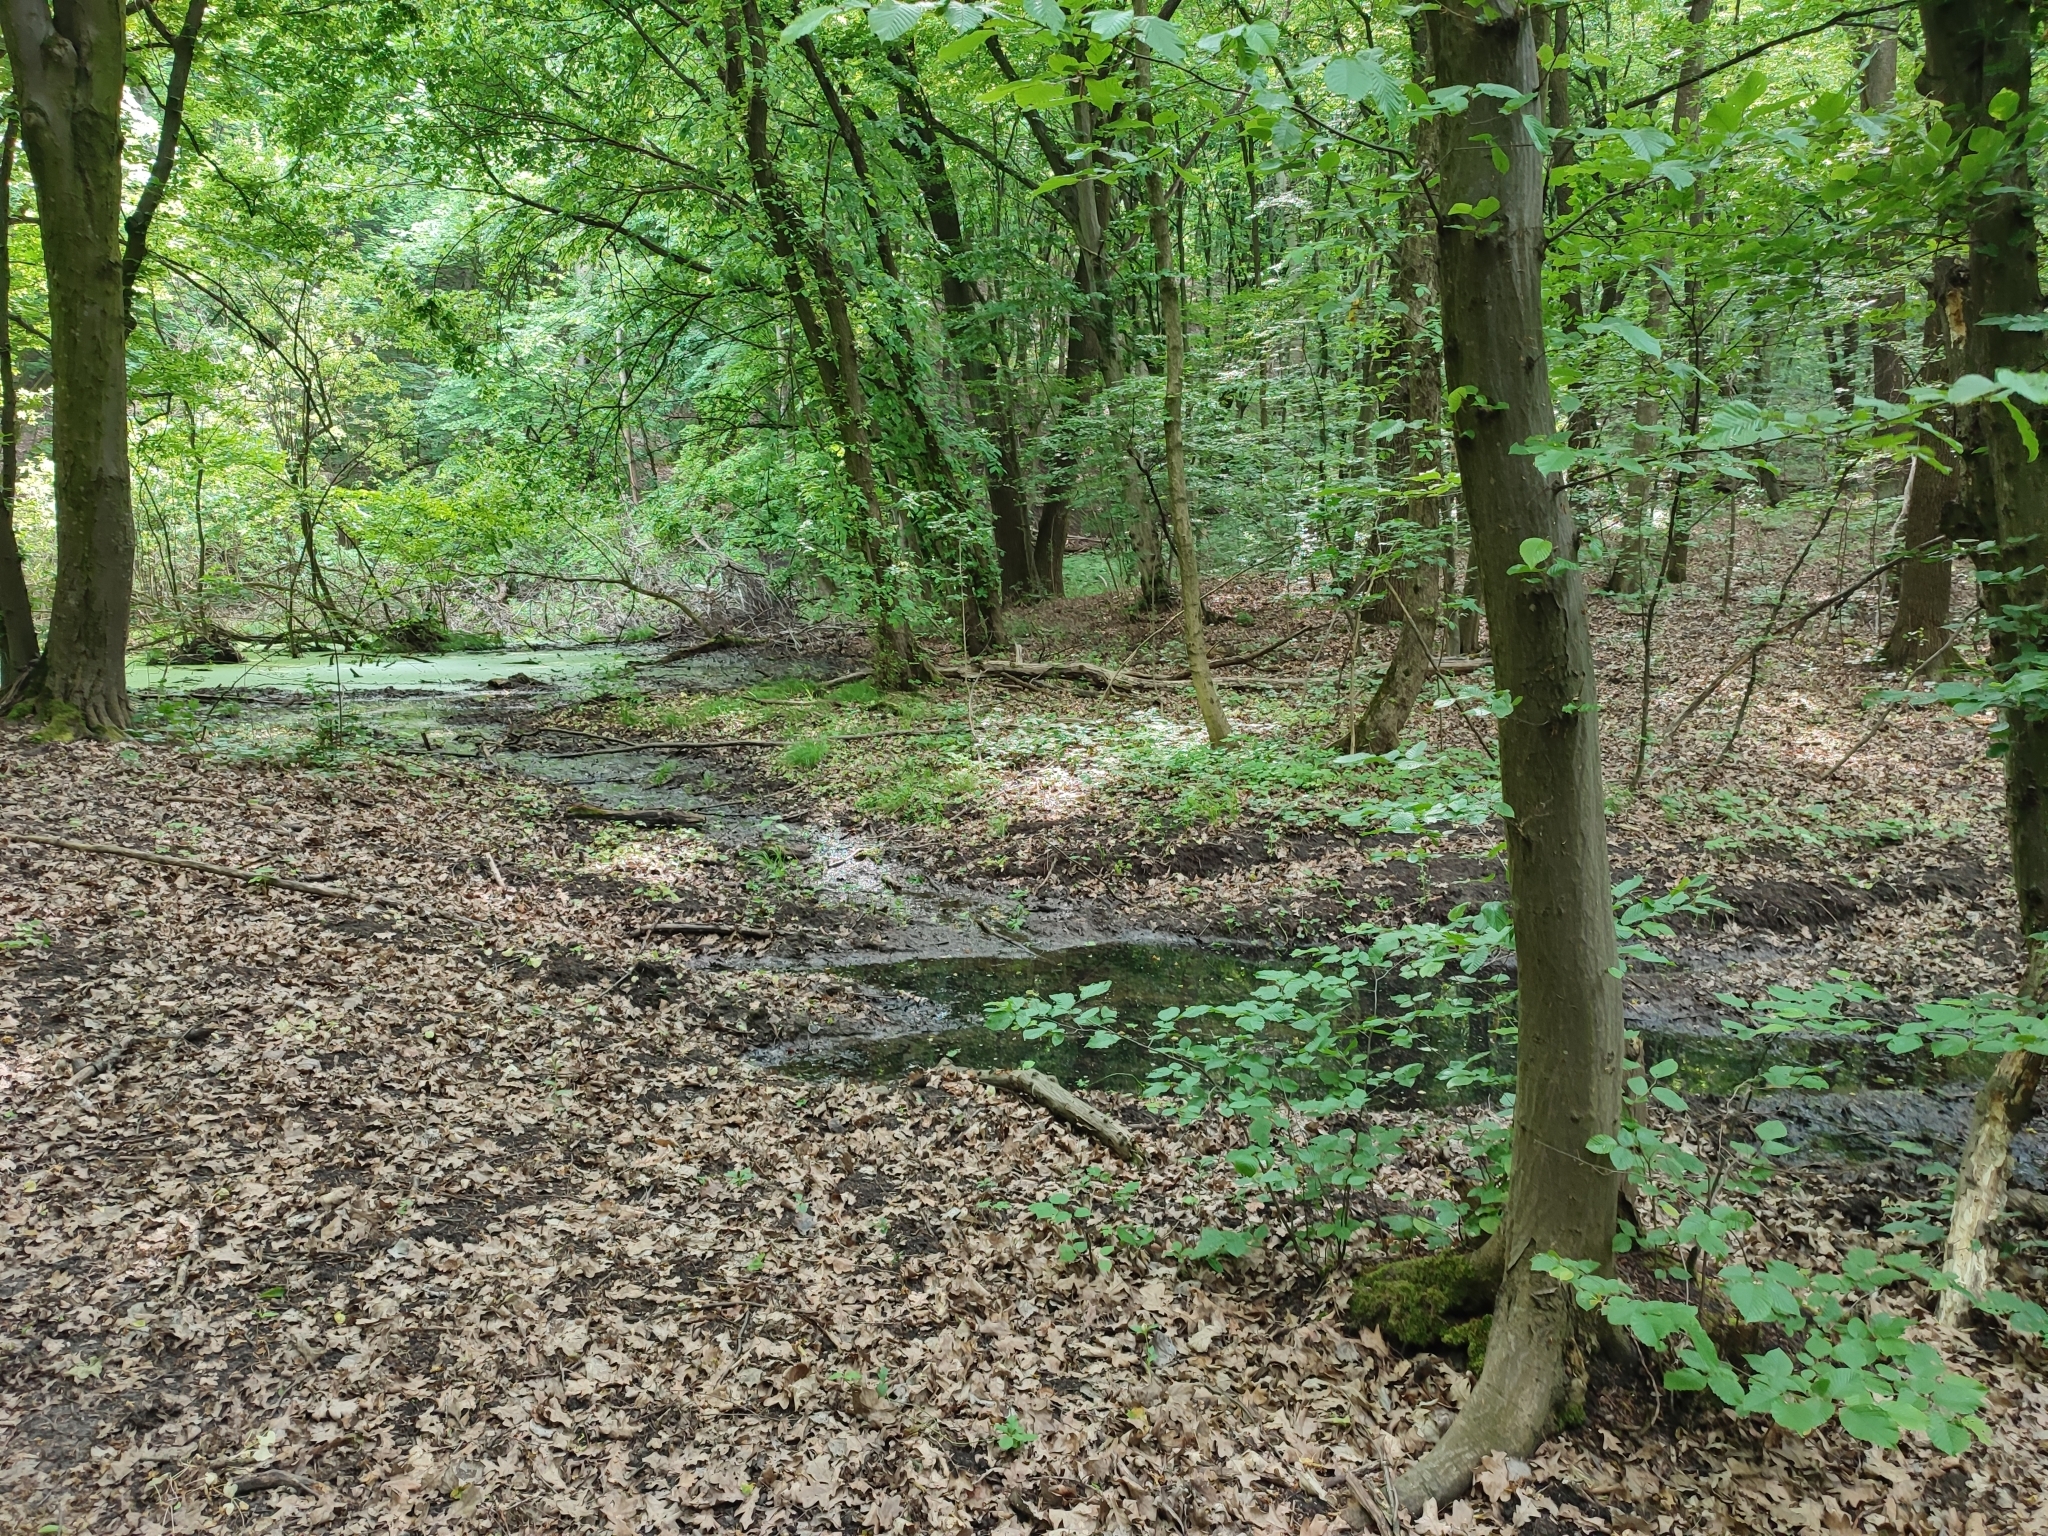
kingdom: Plantae
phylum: Tracheophyta
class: Magnoliopsida
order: Fagales
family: Betulaceae
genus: Carpinus
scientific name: Carpinus betulus
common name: Hornbeam
